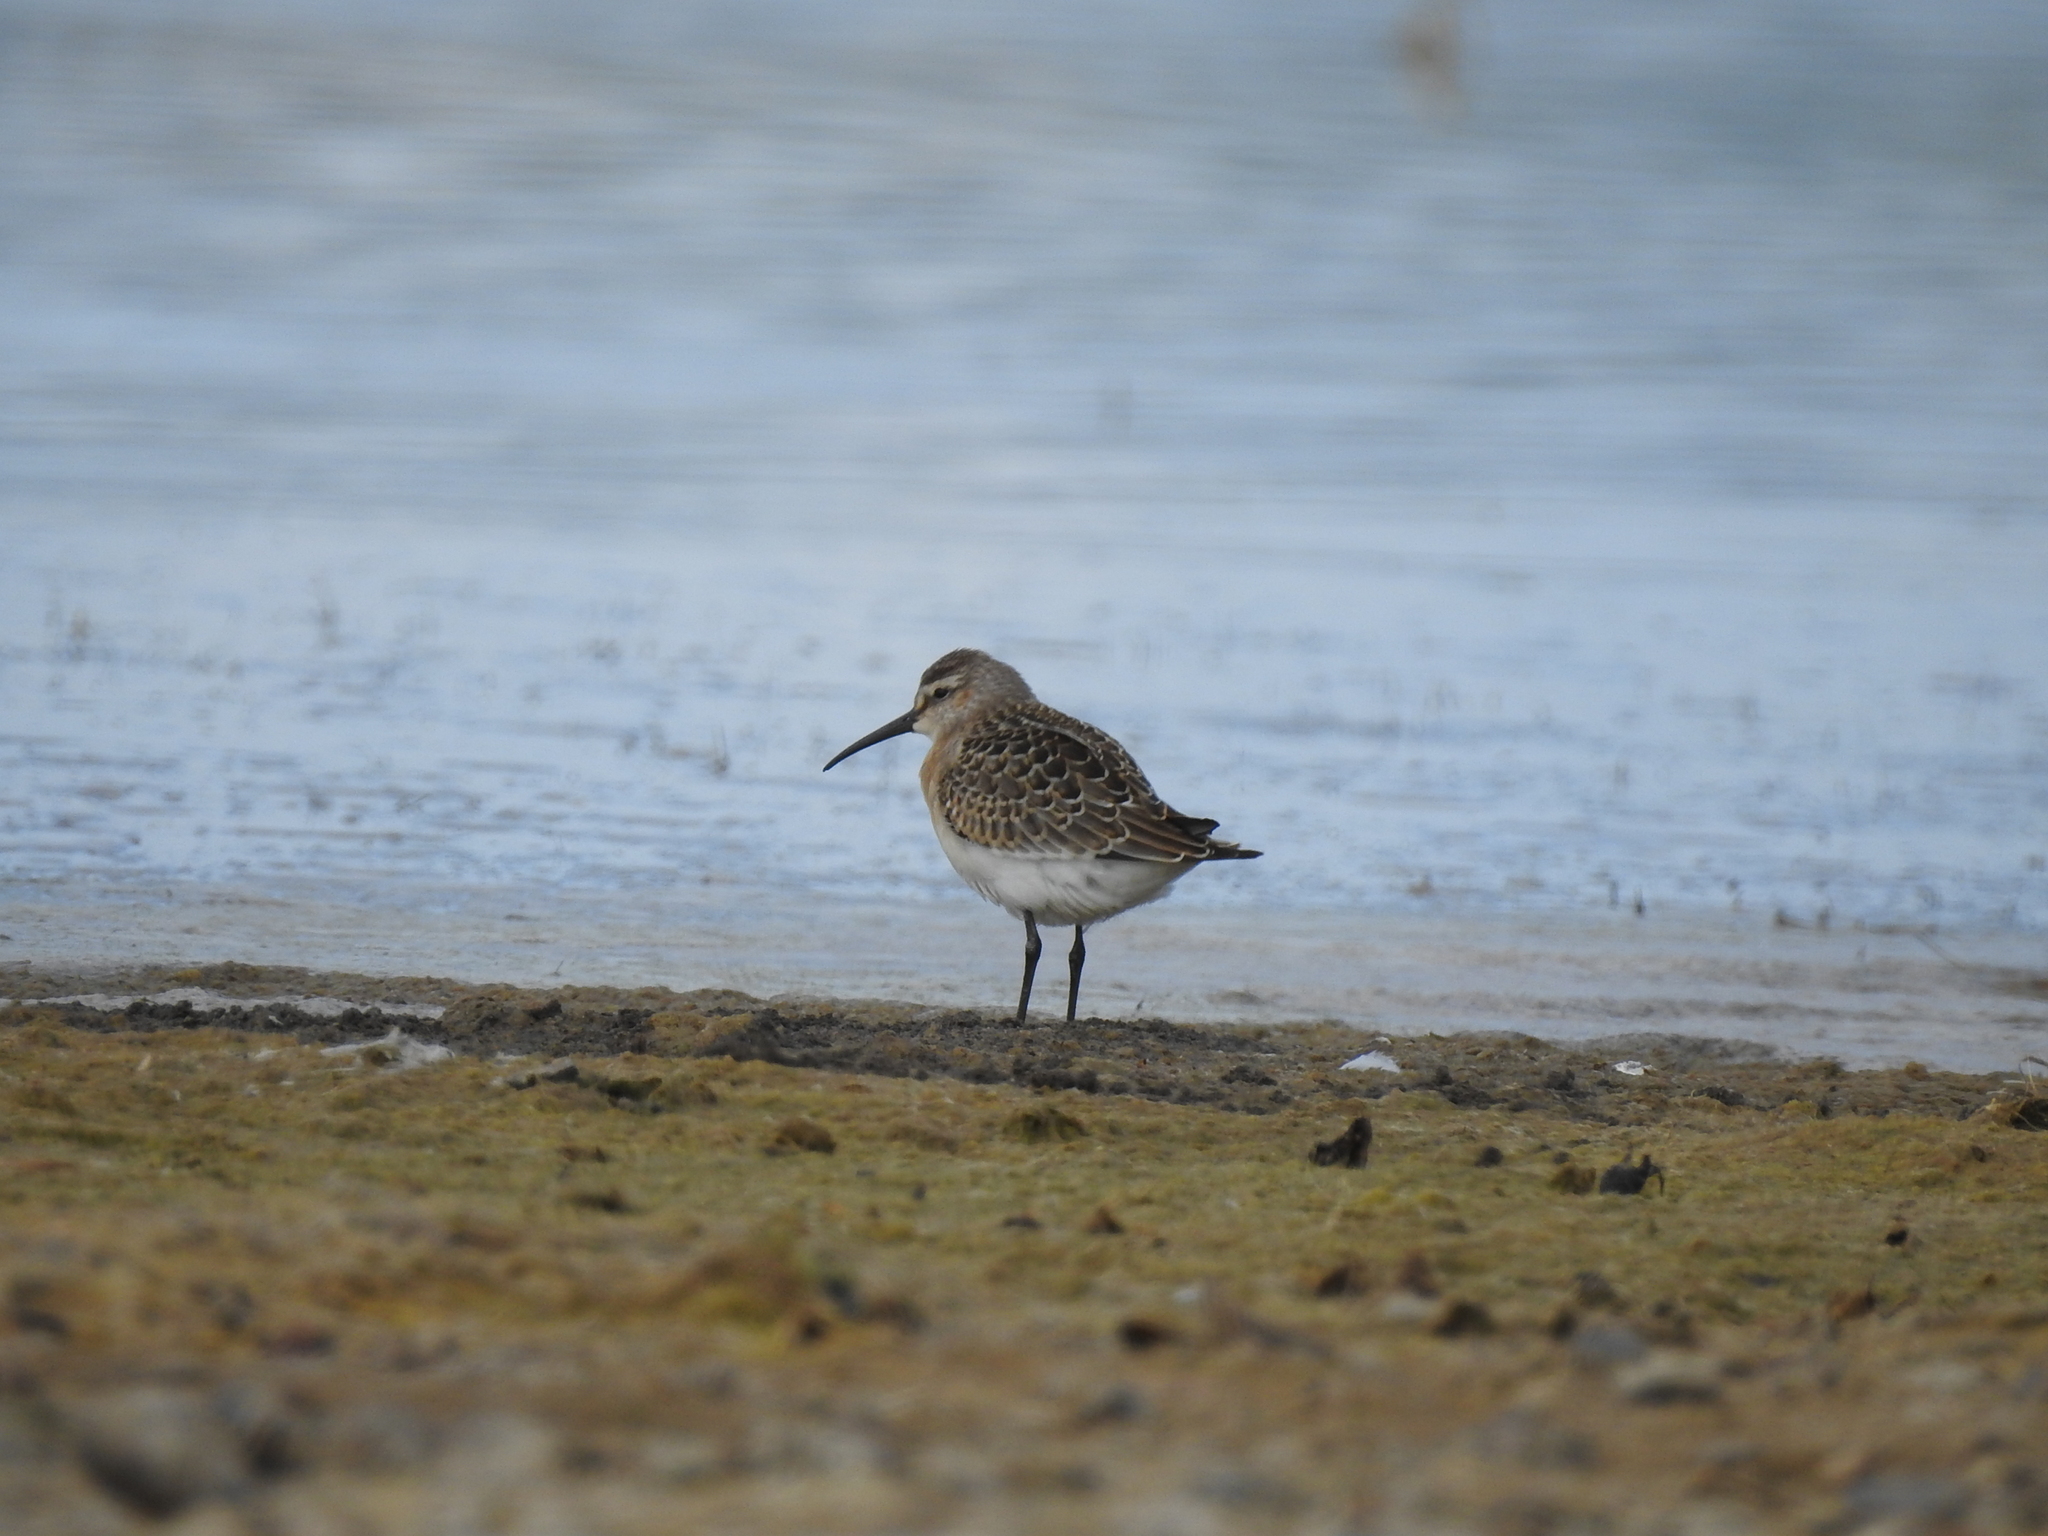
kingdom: Animalia
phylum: Chordata
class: Aves
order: Charadriiformes
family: Scolopacidae
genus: Calidris
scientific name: Calidris ferruginea
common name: Curlew sandpiper
